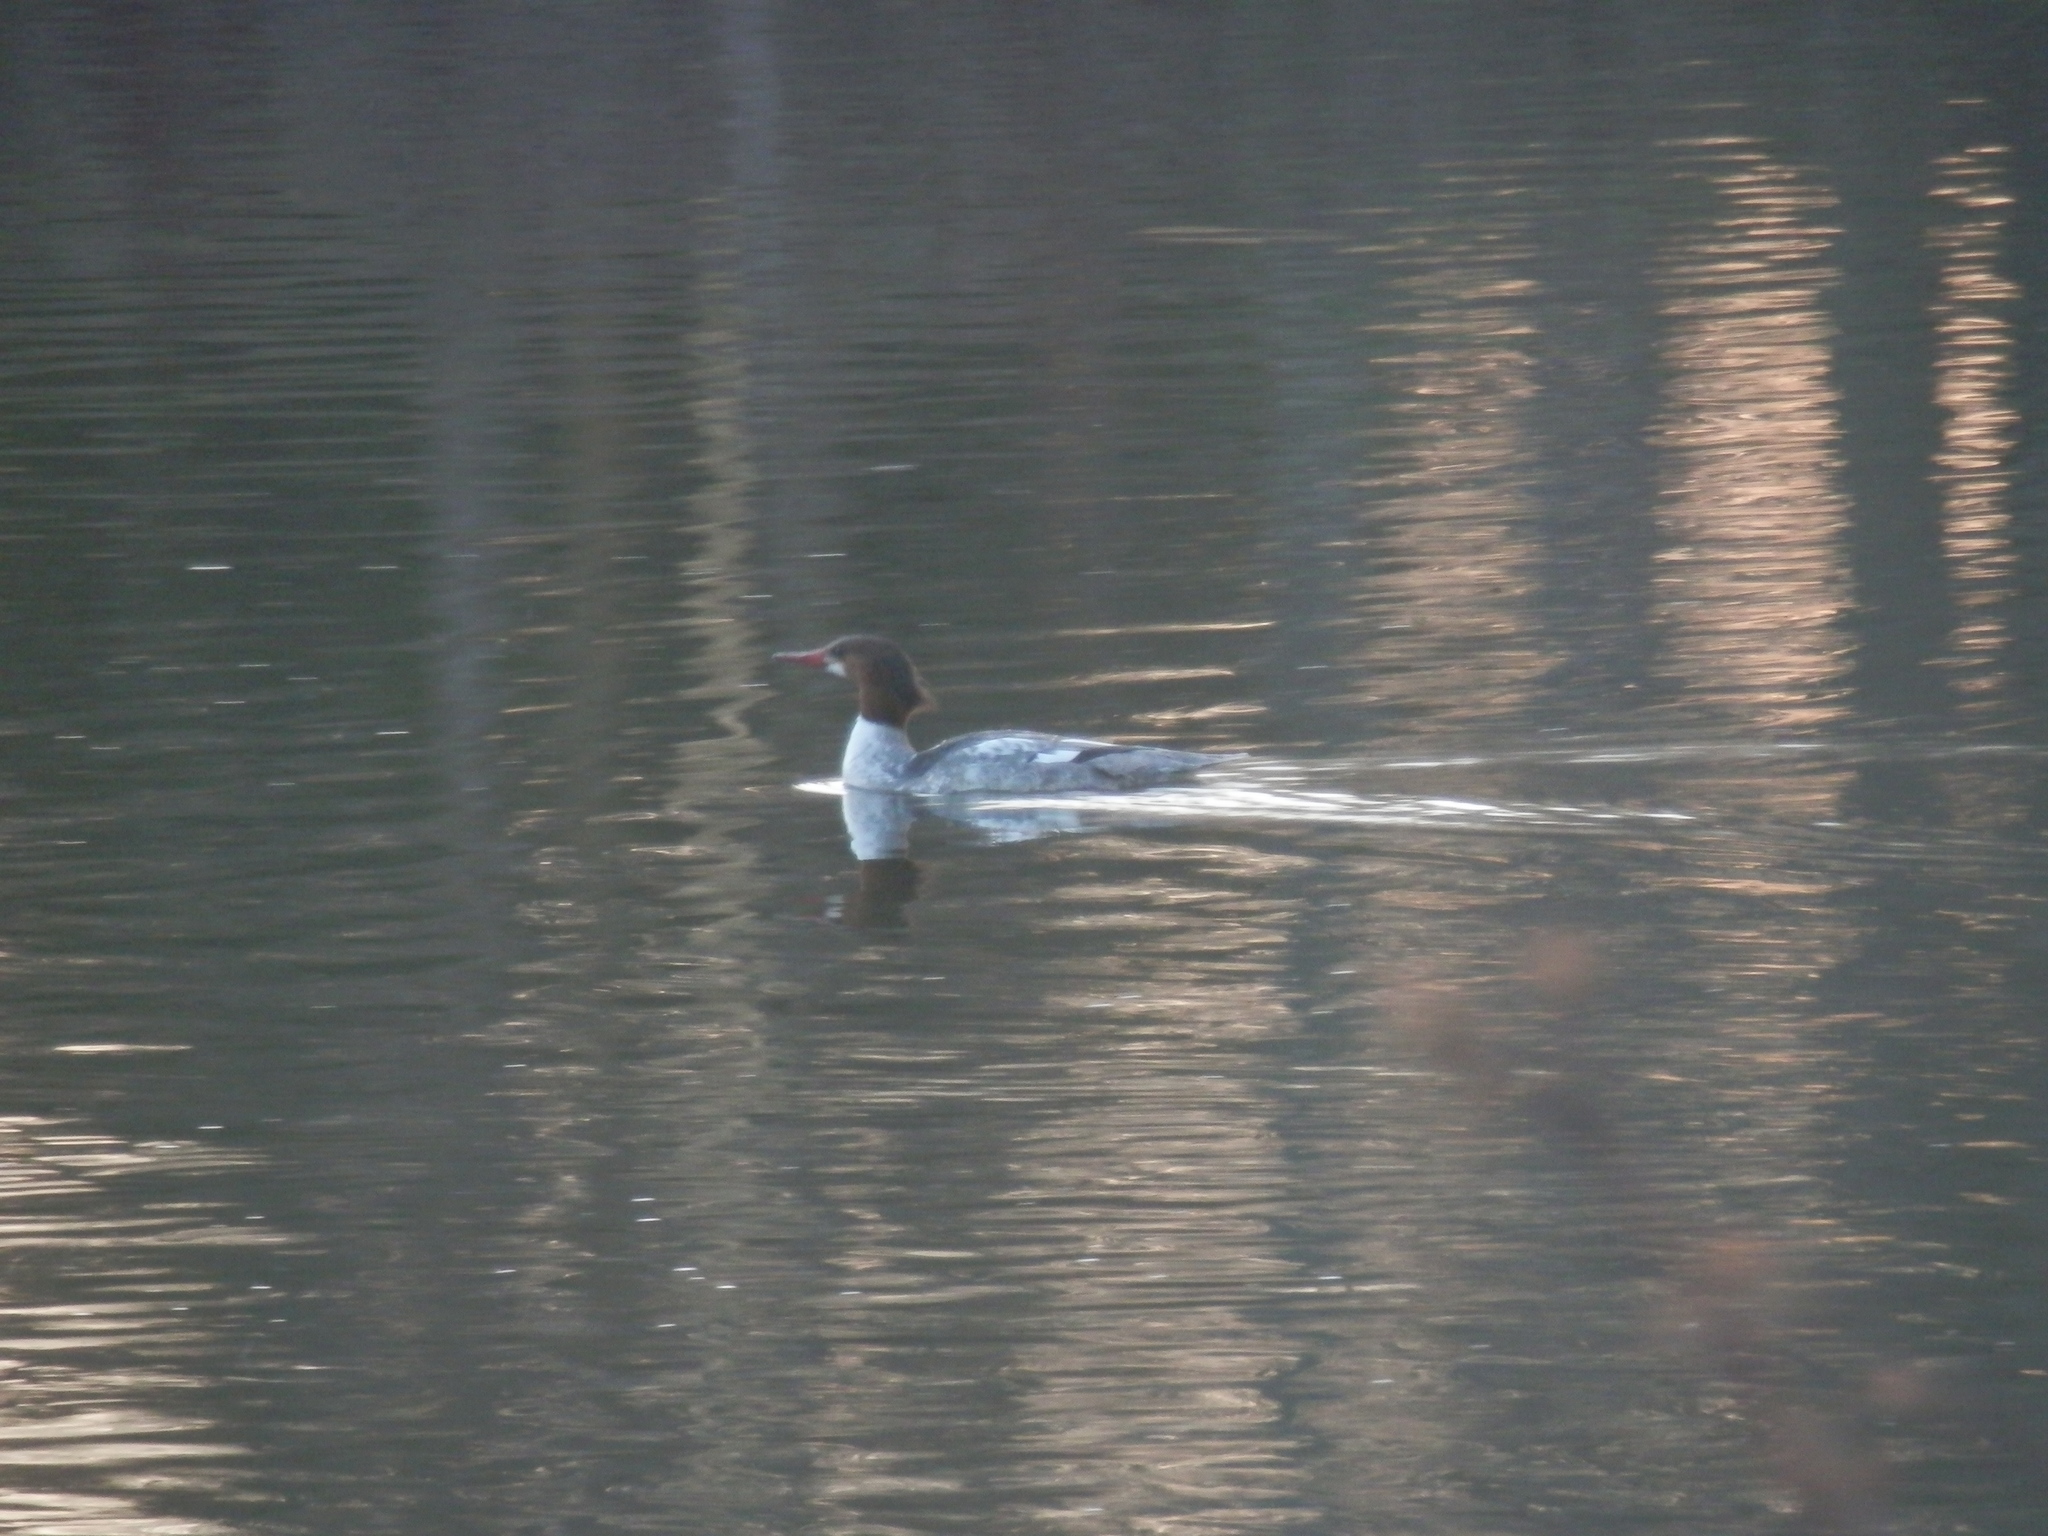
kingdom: Animalia
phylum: Chordata
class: Aves
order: Anseriformes
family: Anatidae
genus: Mergus
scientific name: Mergus merganser
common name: Common merganser
